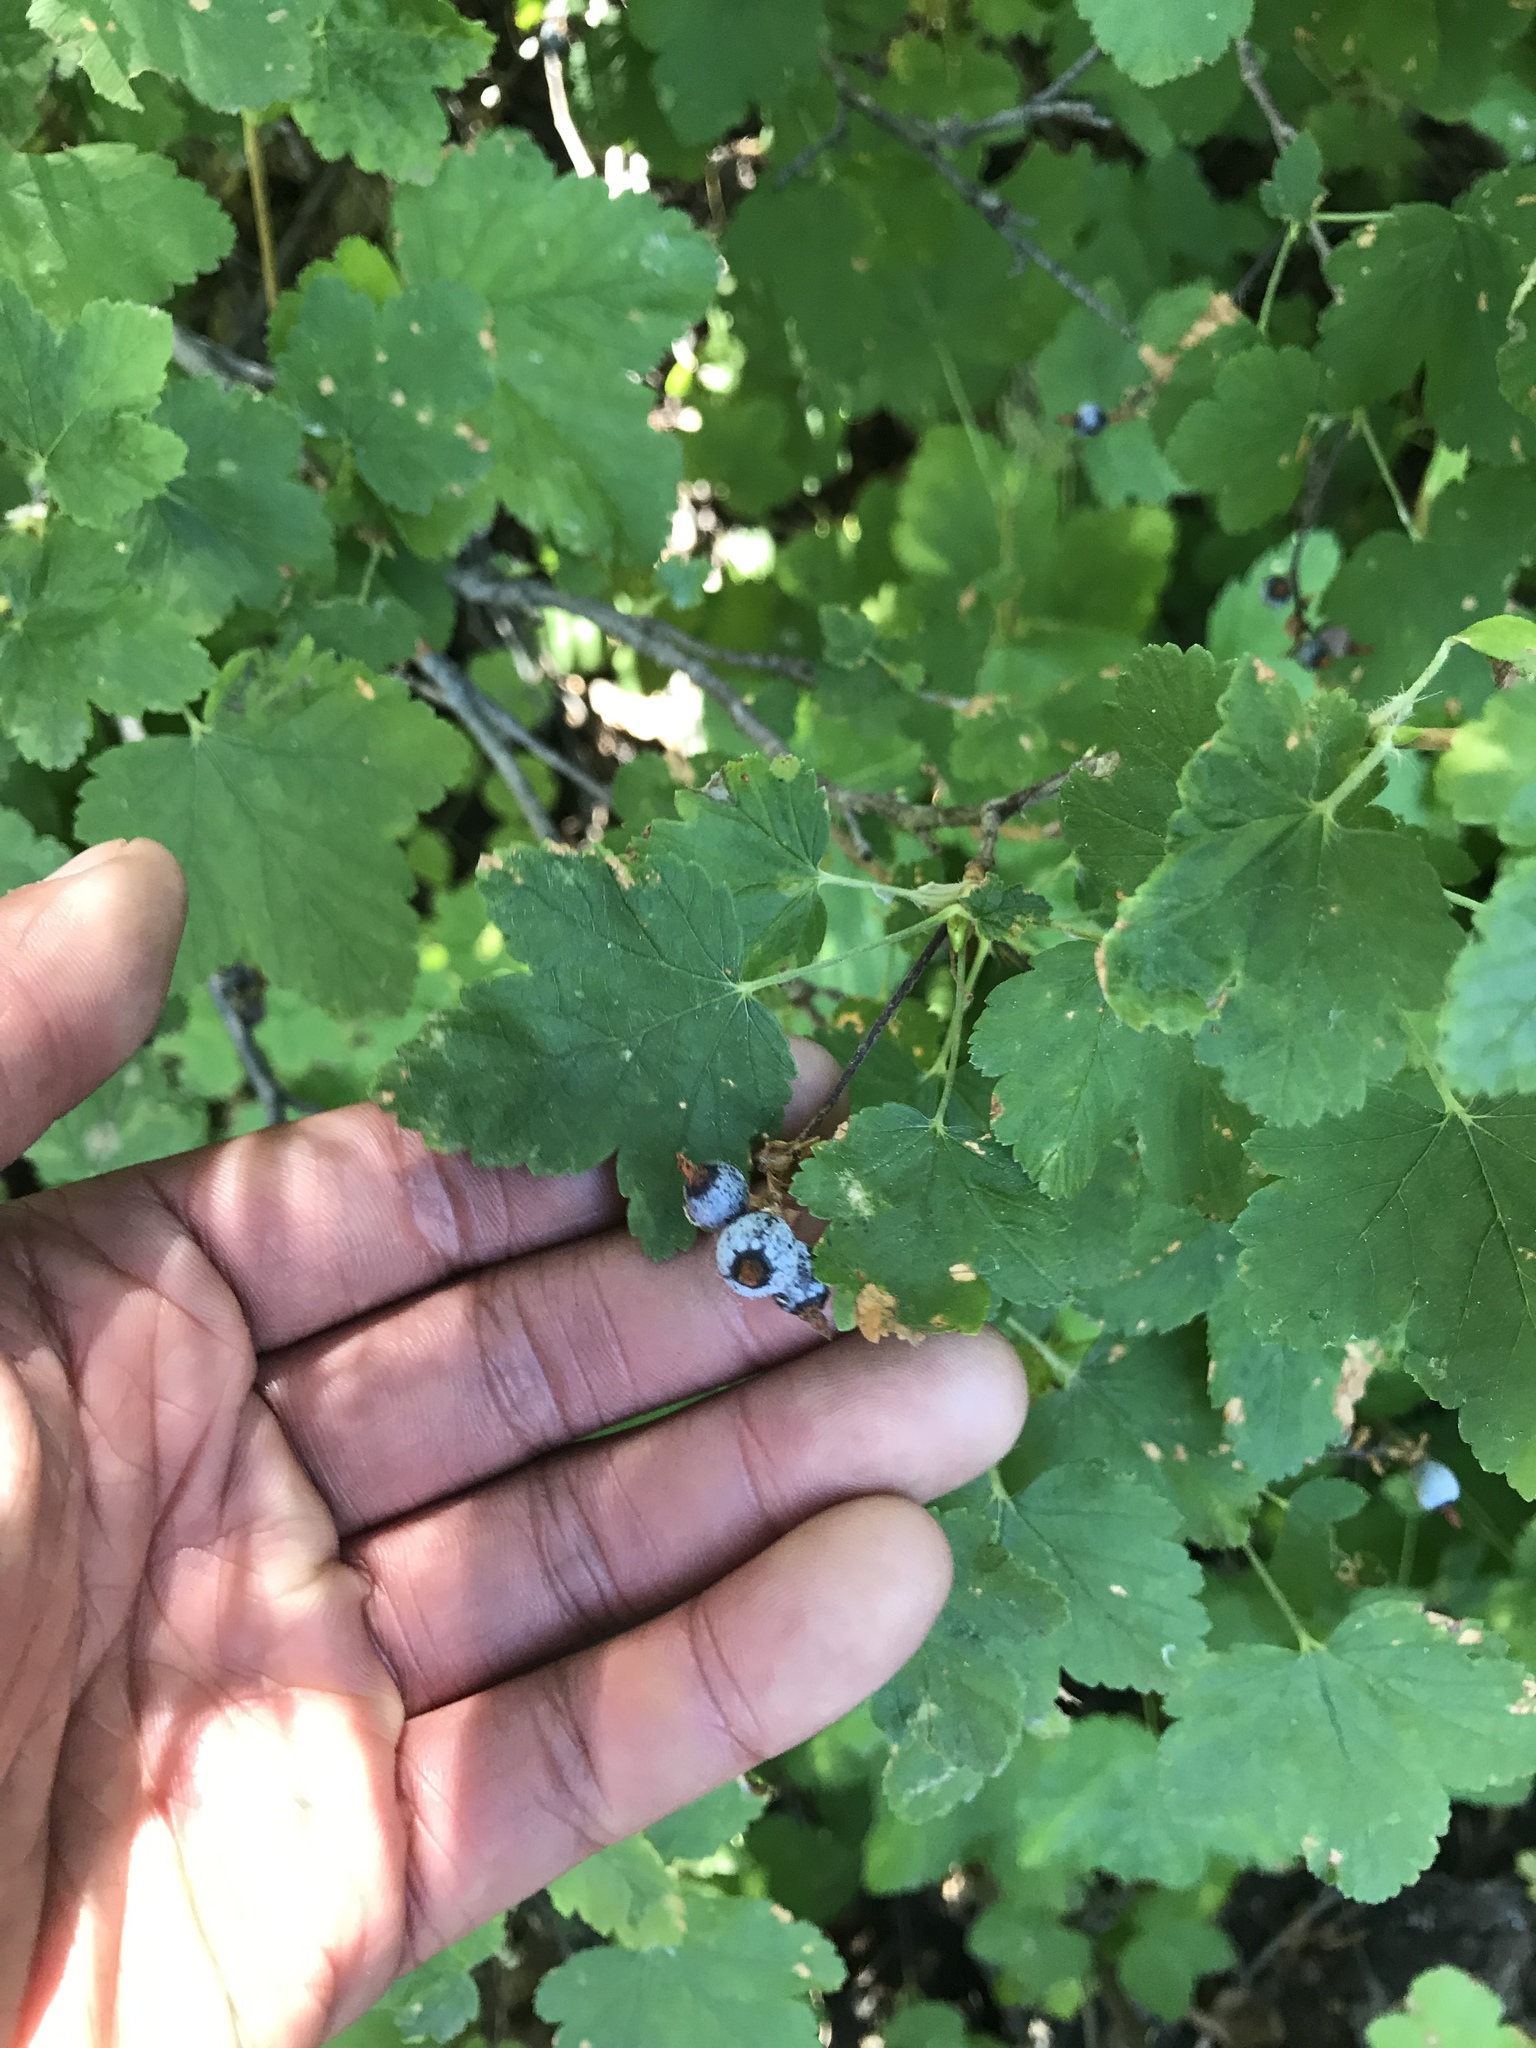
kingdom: Plantae
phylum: Tracheophyta
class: Magnoliopsida
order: Saxifragales
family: Grossulariaceae
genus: Ribes
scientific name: Ribes nevadense
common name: Mountain pink currant
